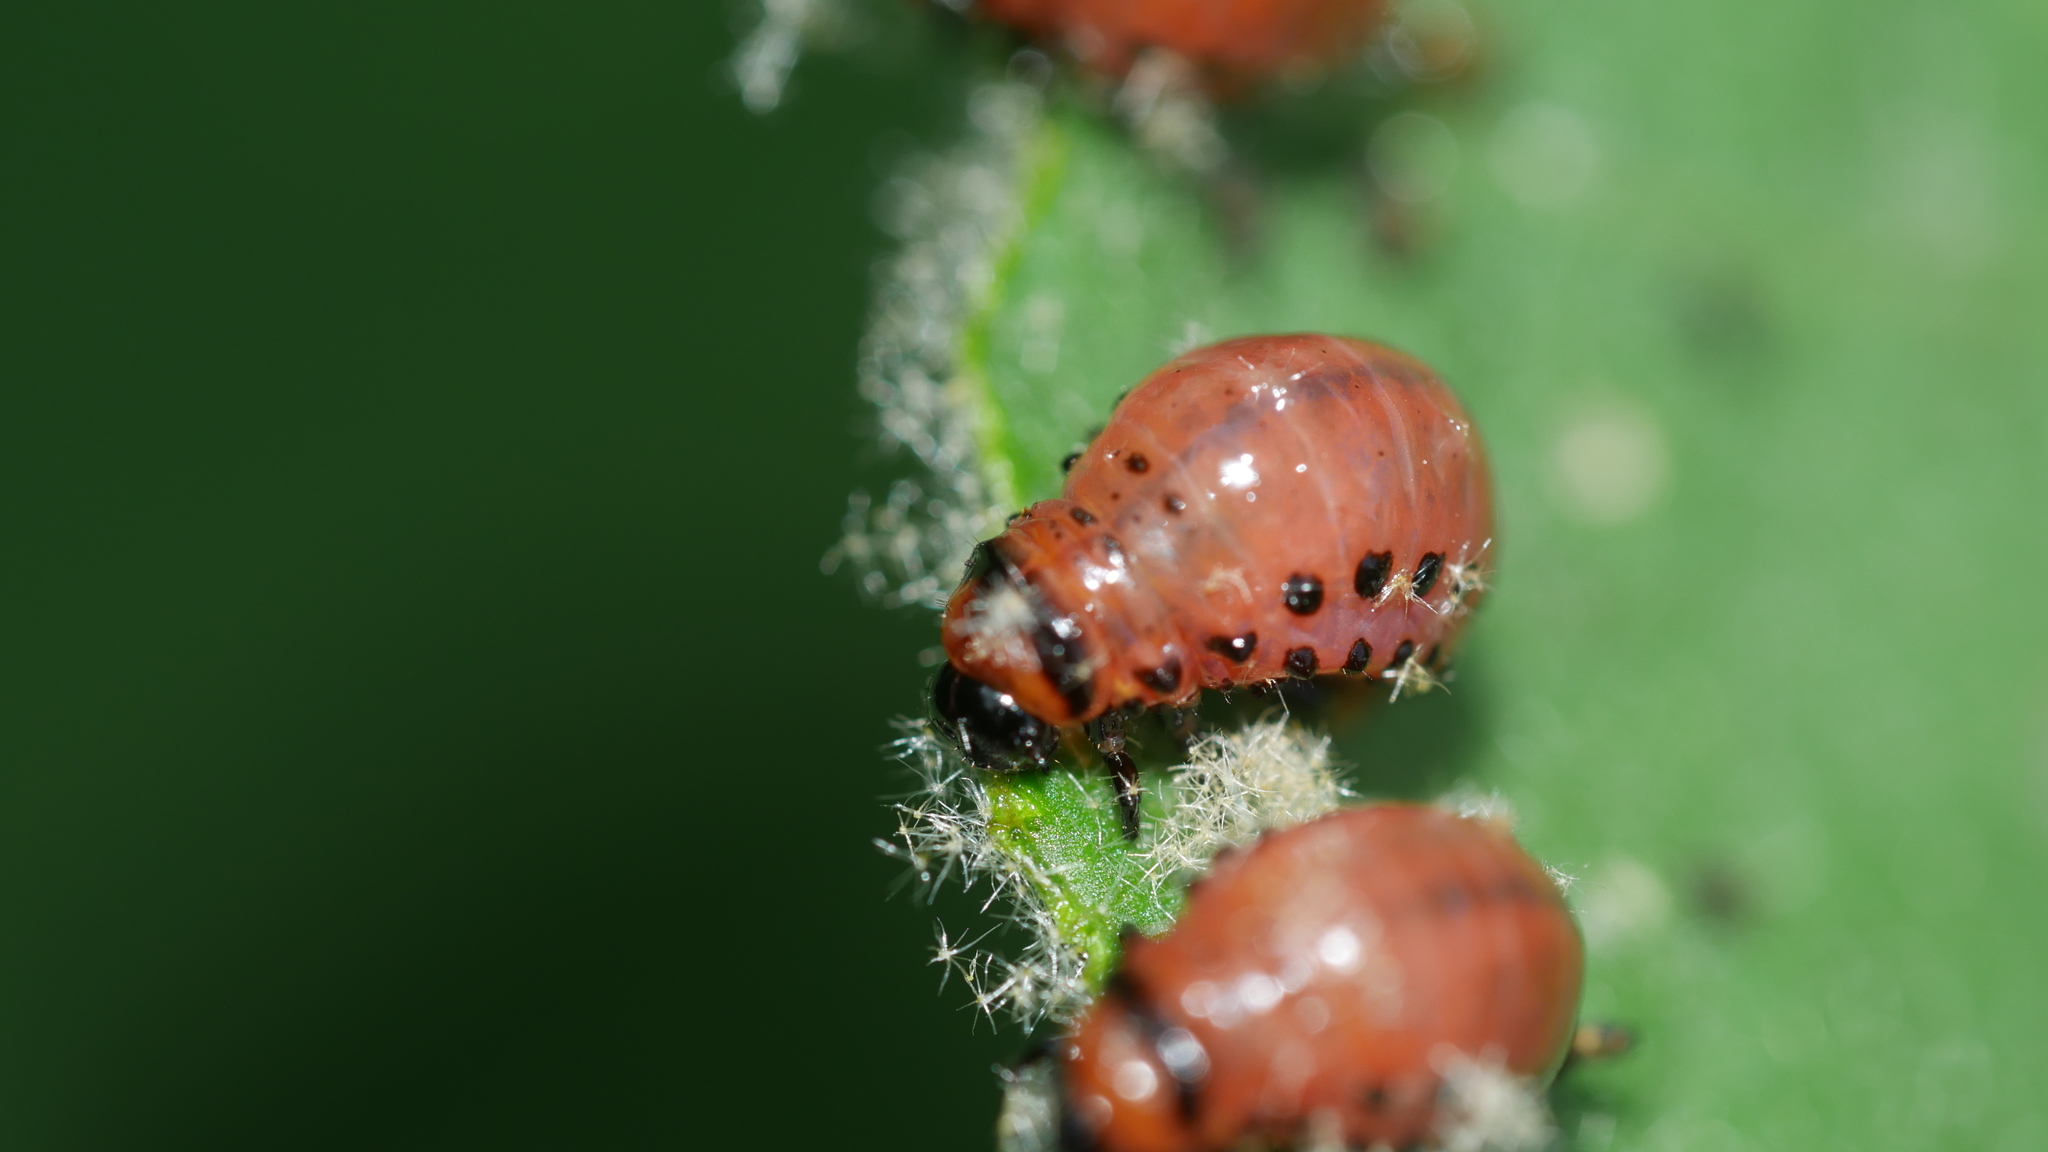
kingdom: Animalia
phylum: Arthropoda
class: Insecta
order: Coleoptera
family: Chrysomelidae
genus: Leptinotarsa
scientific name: Leptinotarsa decemlineata
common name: Colorado potato beetle
